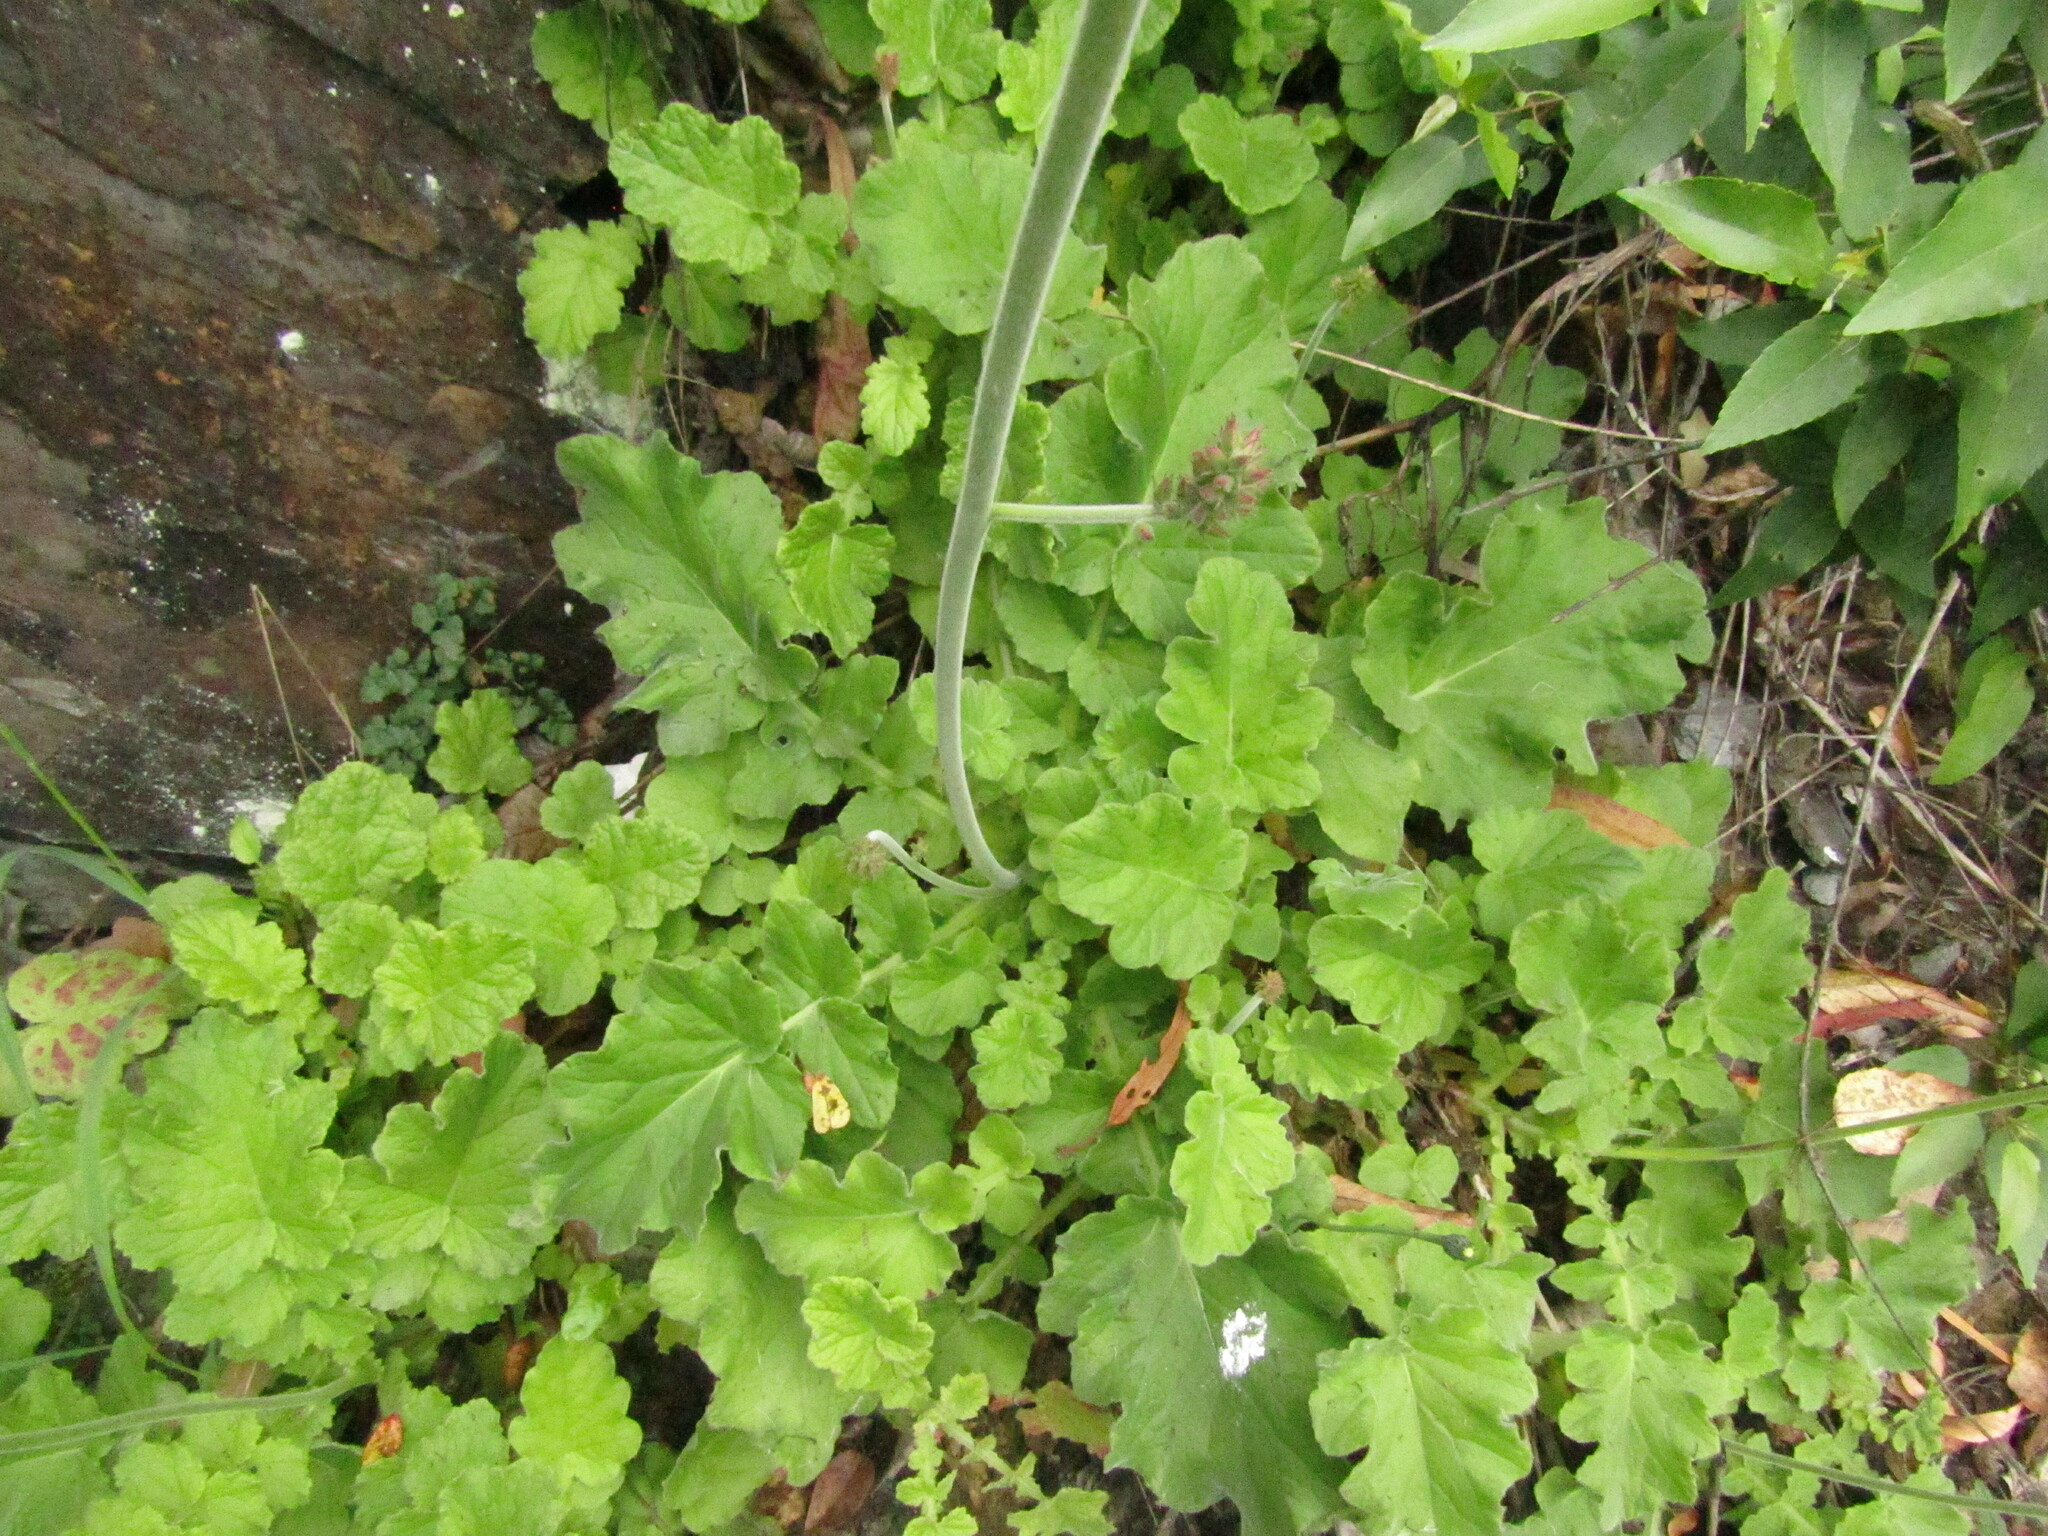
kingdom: Plantae
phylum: Tracheophyta
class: Magnoliopsida
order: Geraniales
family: Francoaceae
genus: Francoa
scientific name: Francoa appendiculata
